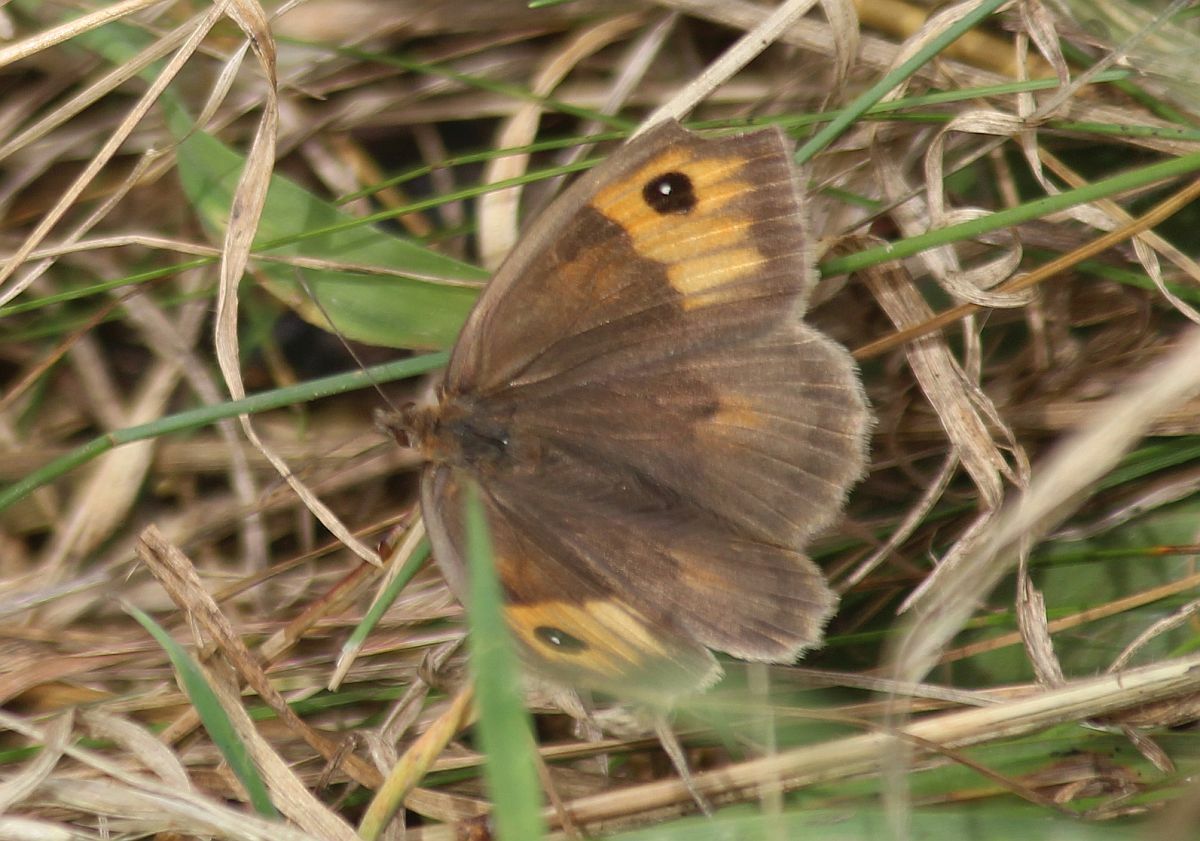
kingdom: Animalia
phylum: Arthropoda
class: Insecta
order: Lepidoptera
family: Nymphalidae
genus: Maniola
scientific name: Maniola jurtina
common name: Meadow brown
